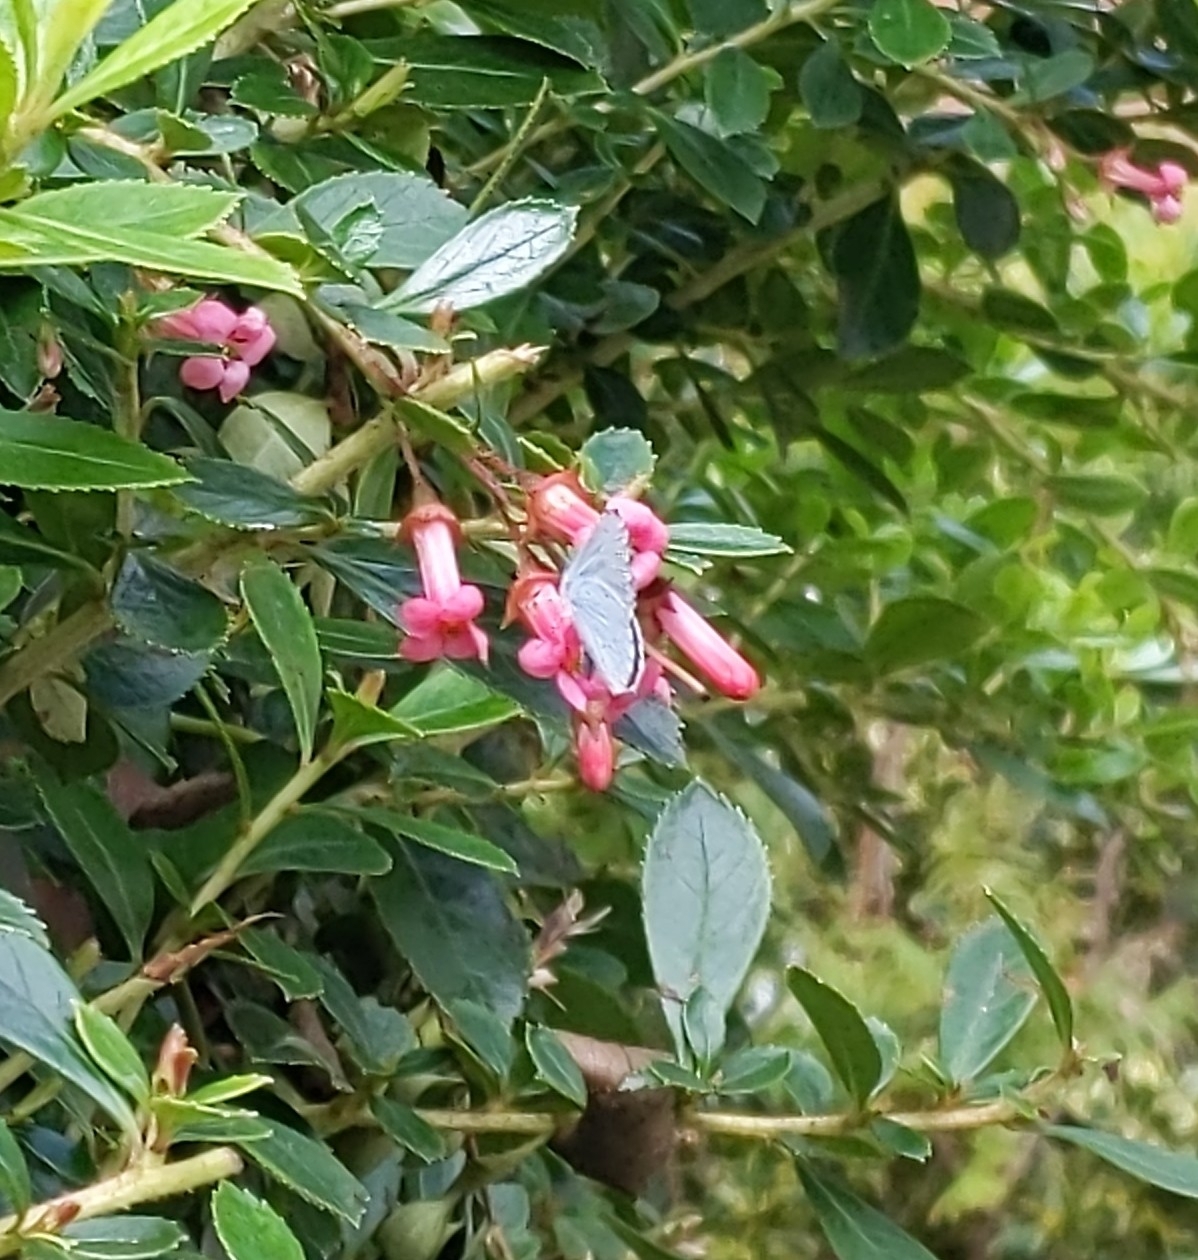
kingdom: Animalia
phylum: Arthropoda
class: Insecta
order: Lepidoptera
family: Lycaenidae
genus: Celastrina
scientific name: Celastrina argiolus
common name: Holly blue
